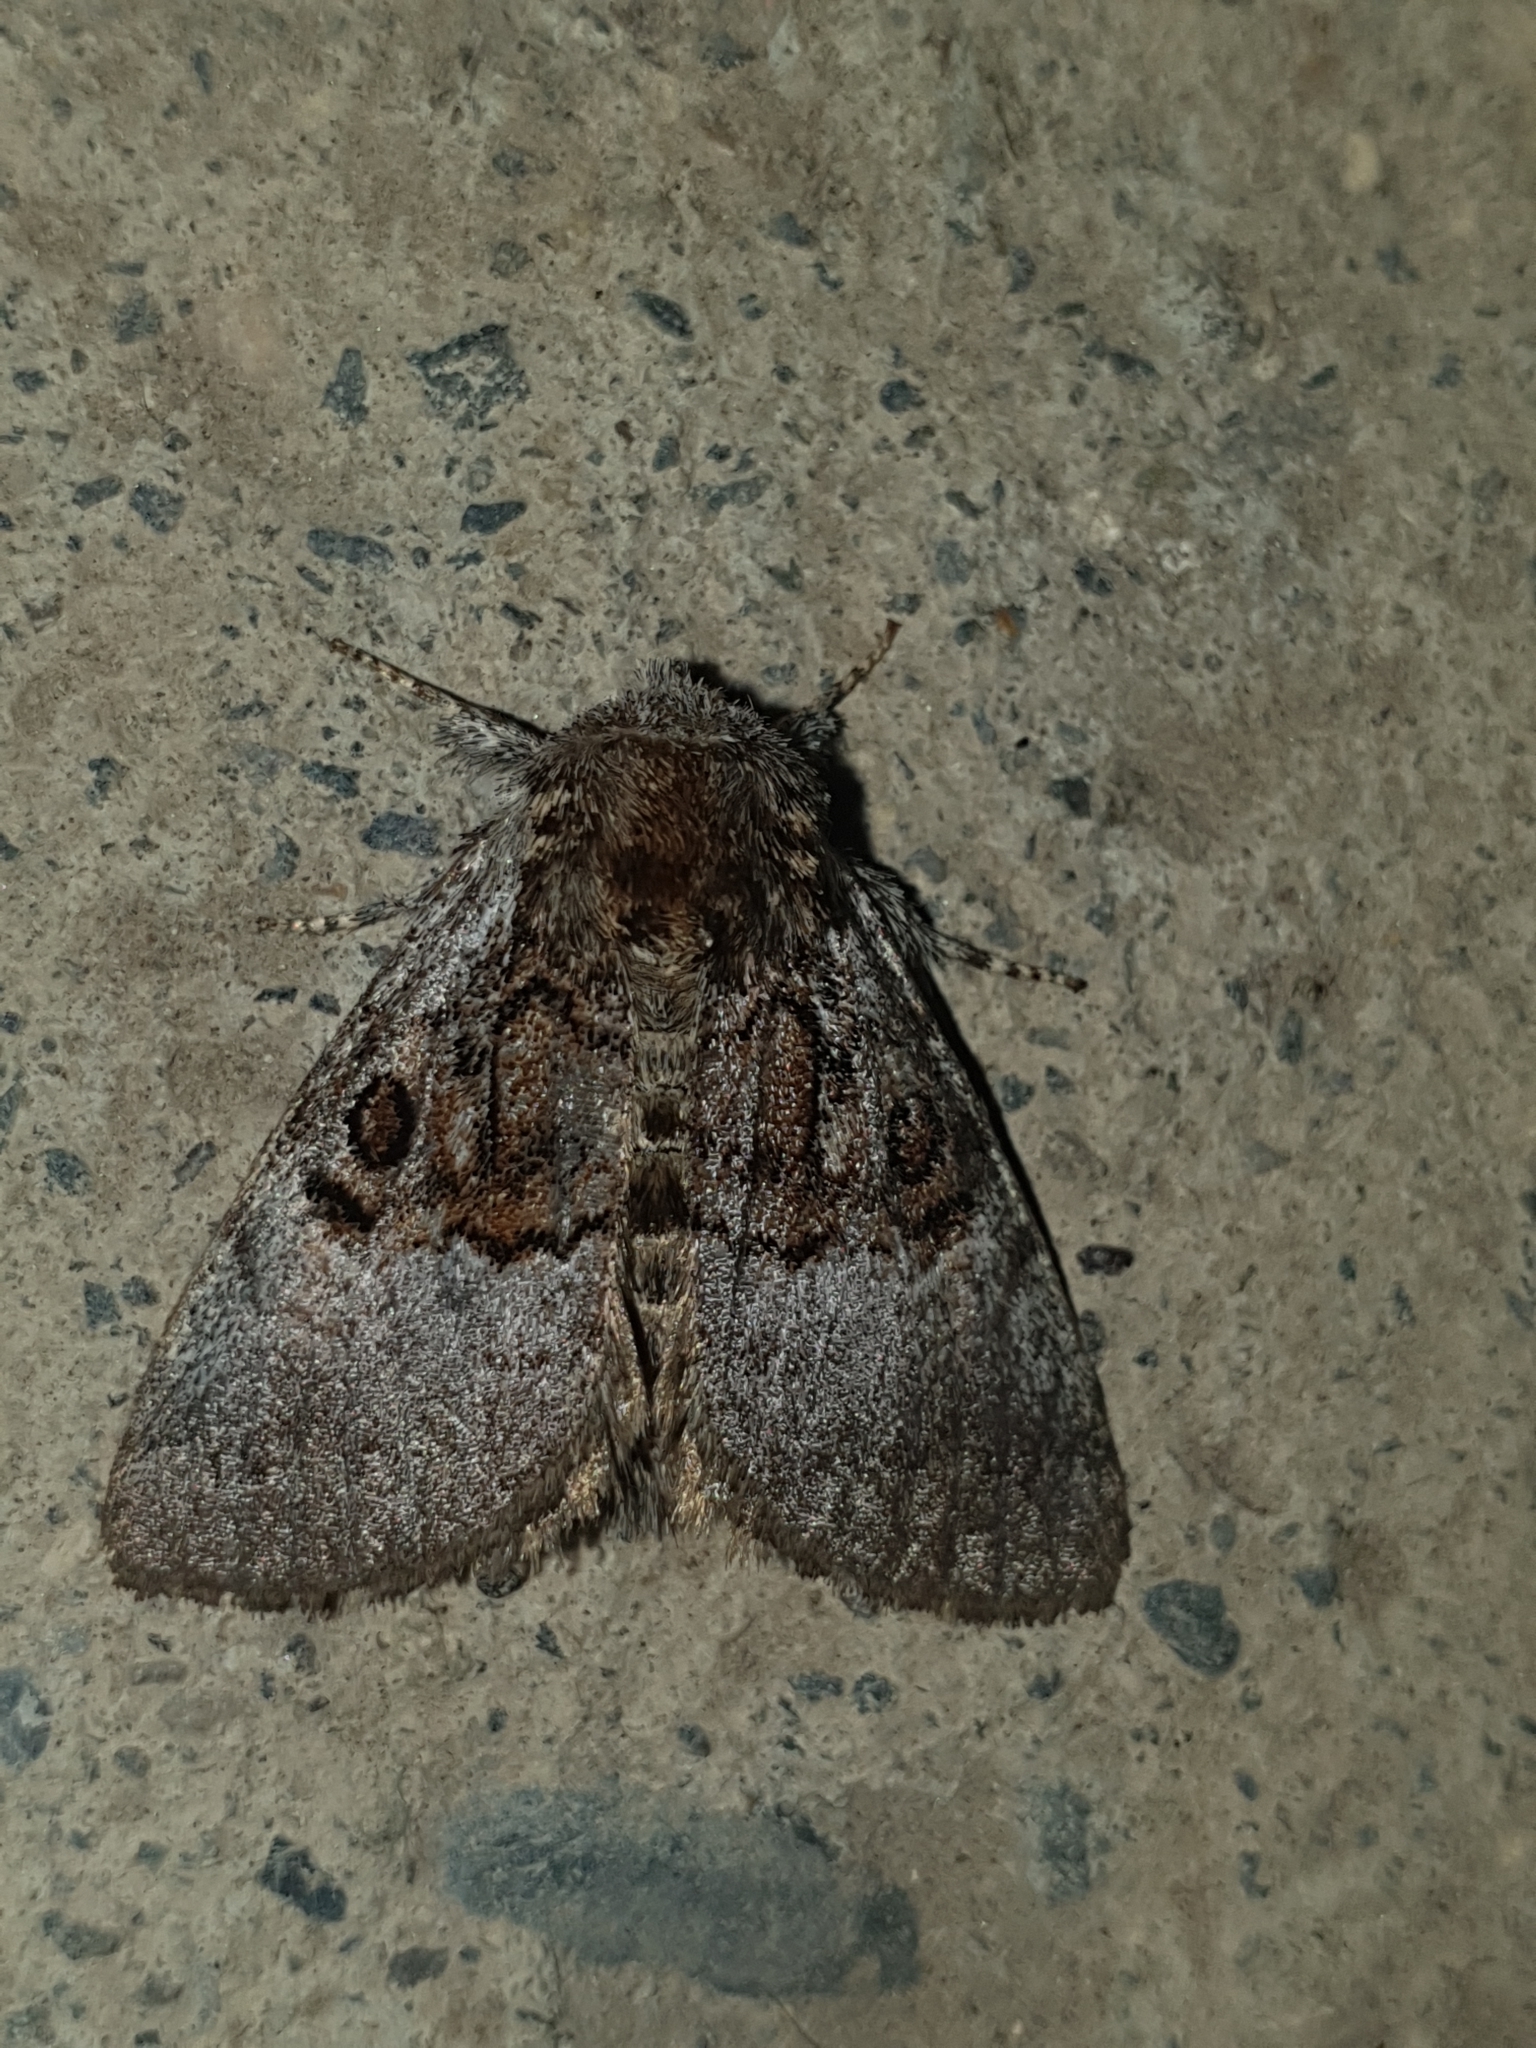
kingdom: Animalia
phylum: Arthropoda
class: Insecta
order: Lepidoptera
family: Noctuidae
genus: Colocasia
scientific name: Colocasia coryli
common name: Nut-tree tussock
